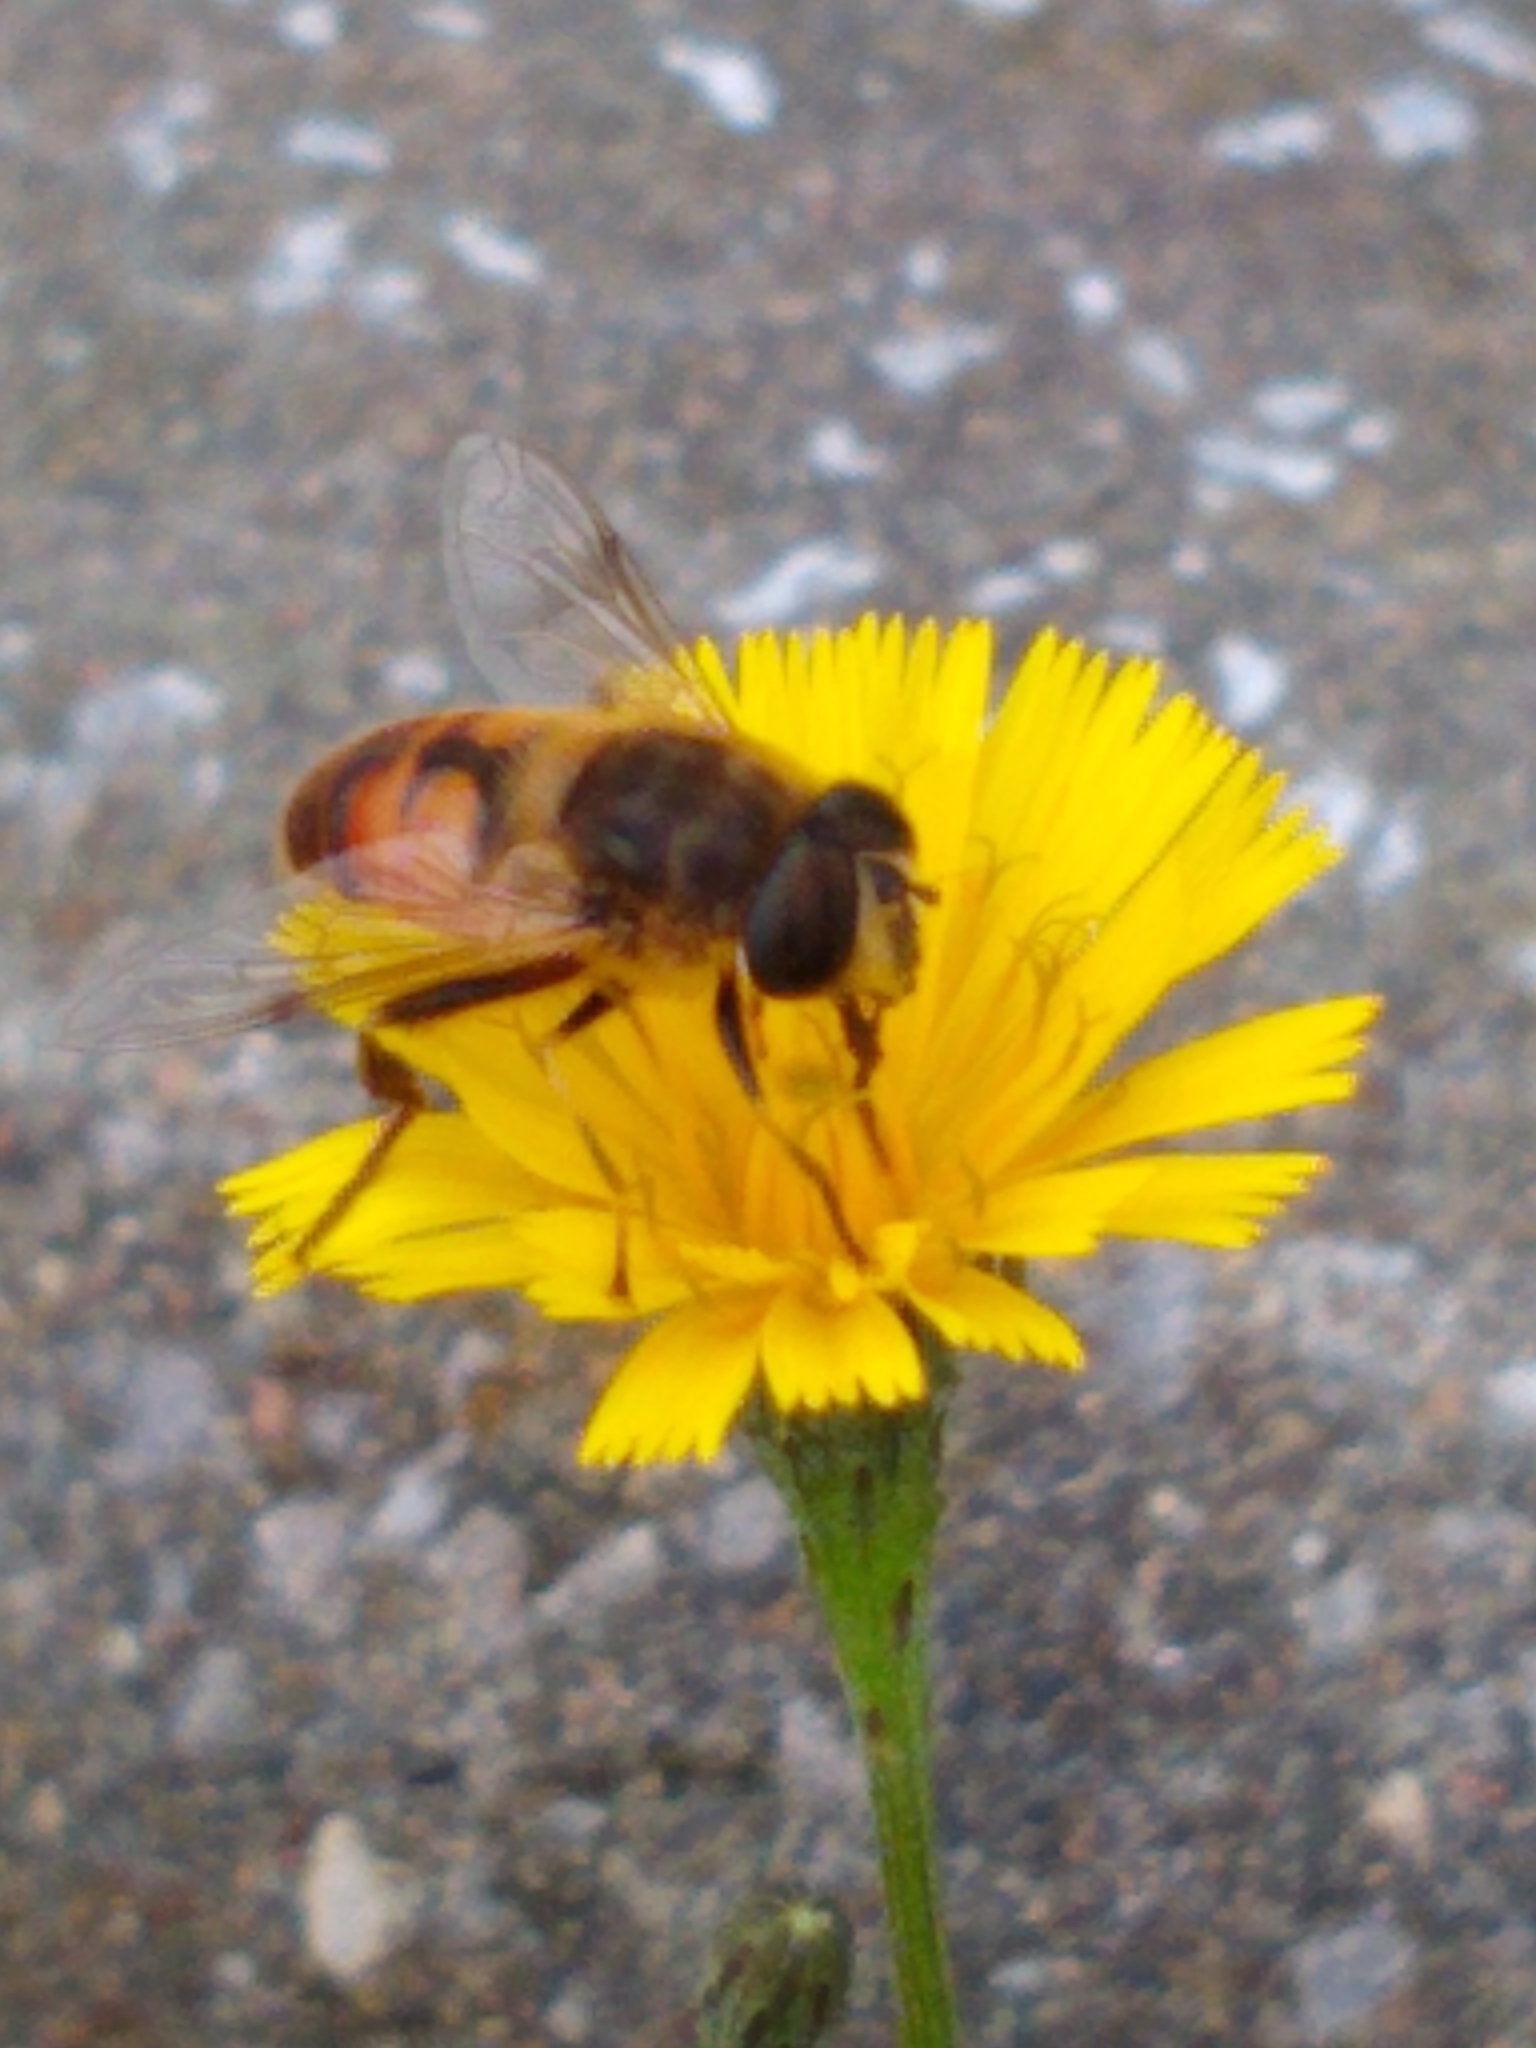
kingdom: Animalia
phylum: Arthropoda
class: Insecta
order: Diptera
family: Syrphidae
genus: Eristalis
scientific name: Eristalis tenax
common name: Drone fly
